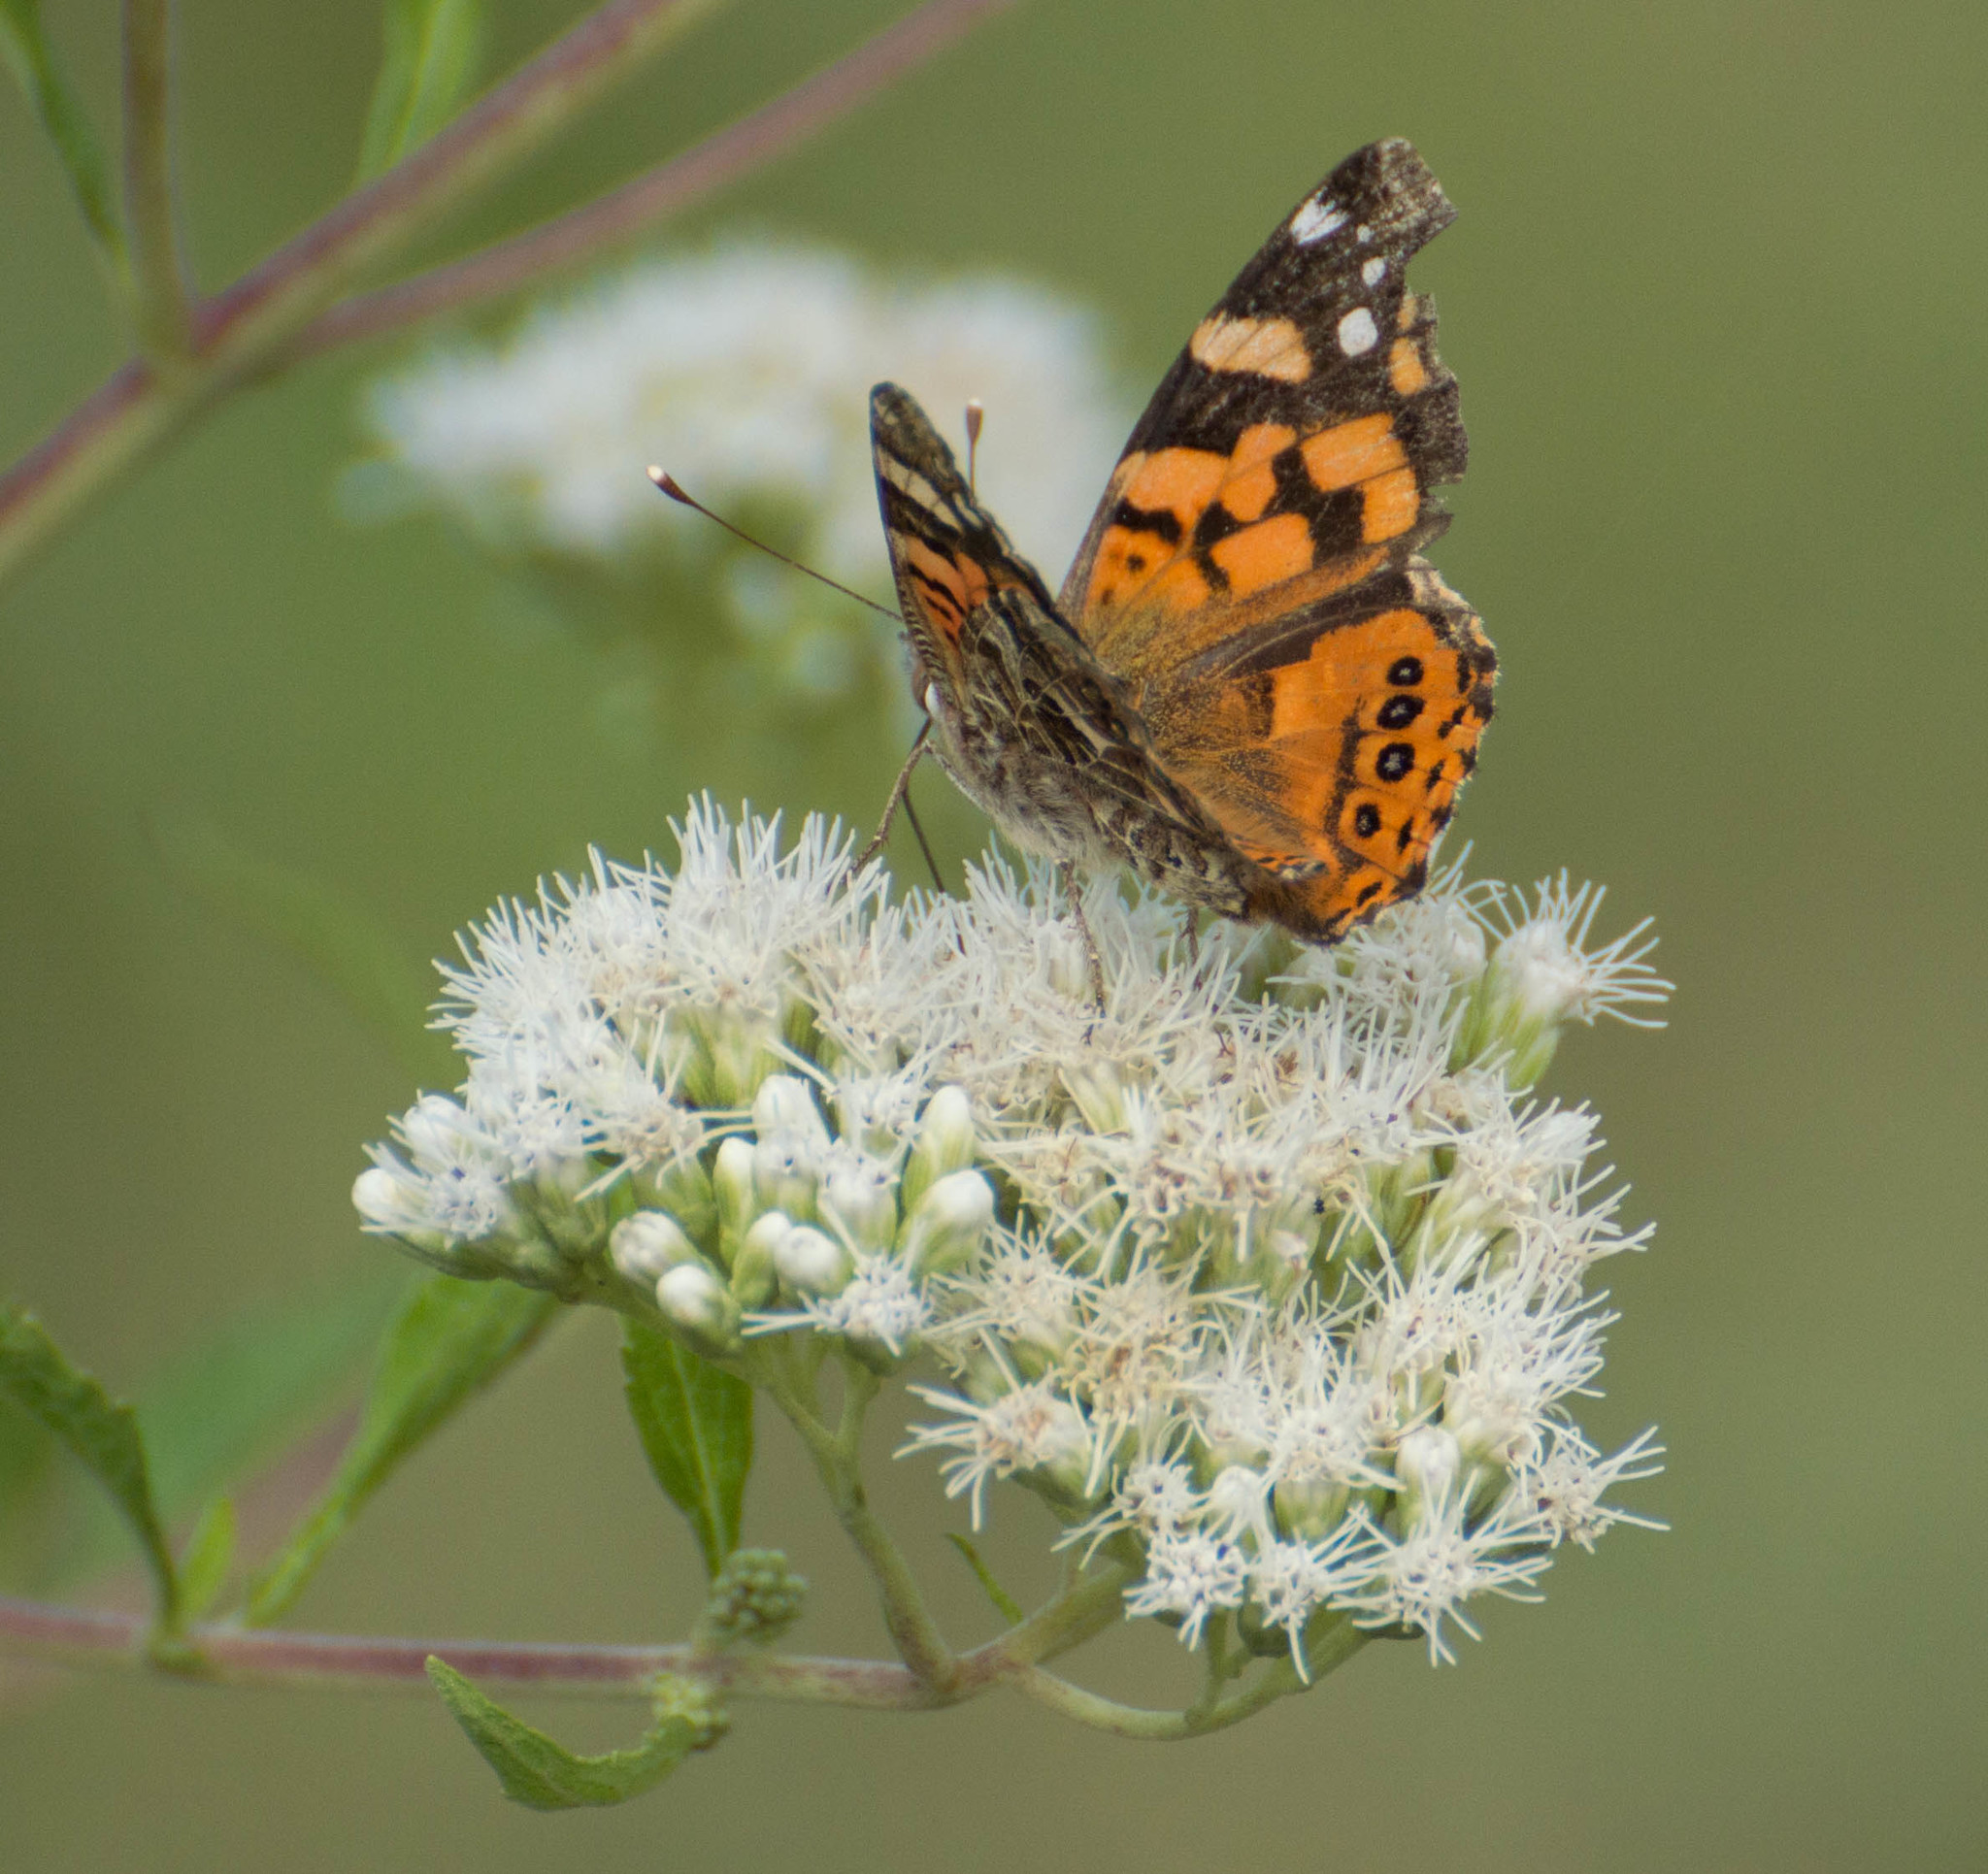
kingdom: Animalia
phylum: Arthropoda
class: Insecta
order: Lepidoptera
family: Nymphalidae
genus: Vanessa
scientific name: Vanessa carye
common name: Subtropical lady
